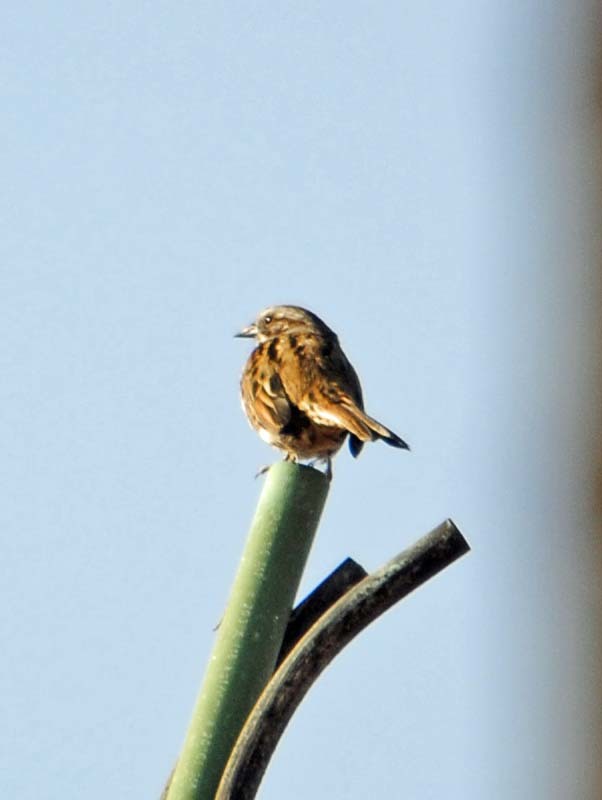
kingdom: Animalia
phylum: Chordata
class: Aves
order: Passeriformes
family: Passerellidae
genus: Melospiza
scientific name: Melospiza melodia
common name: Song sparrow
